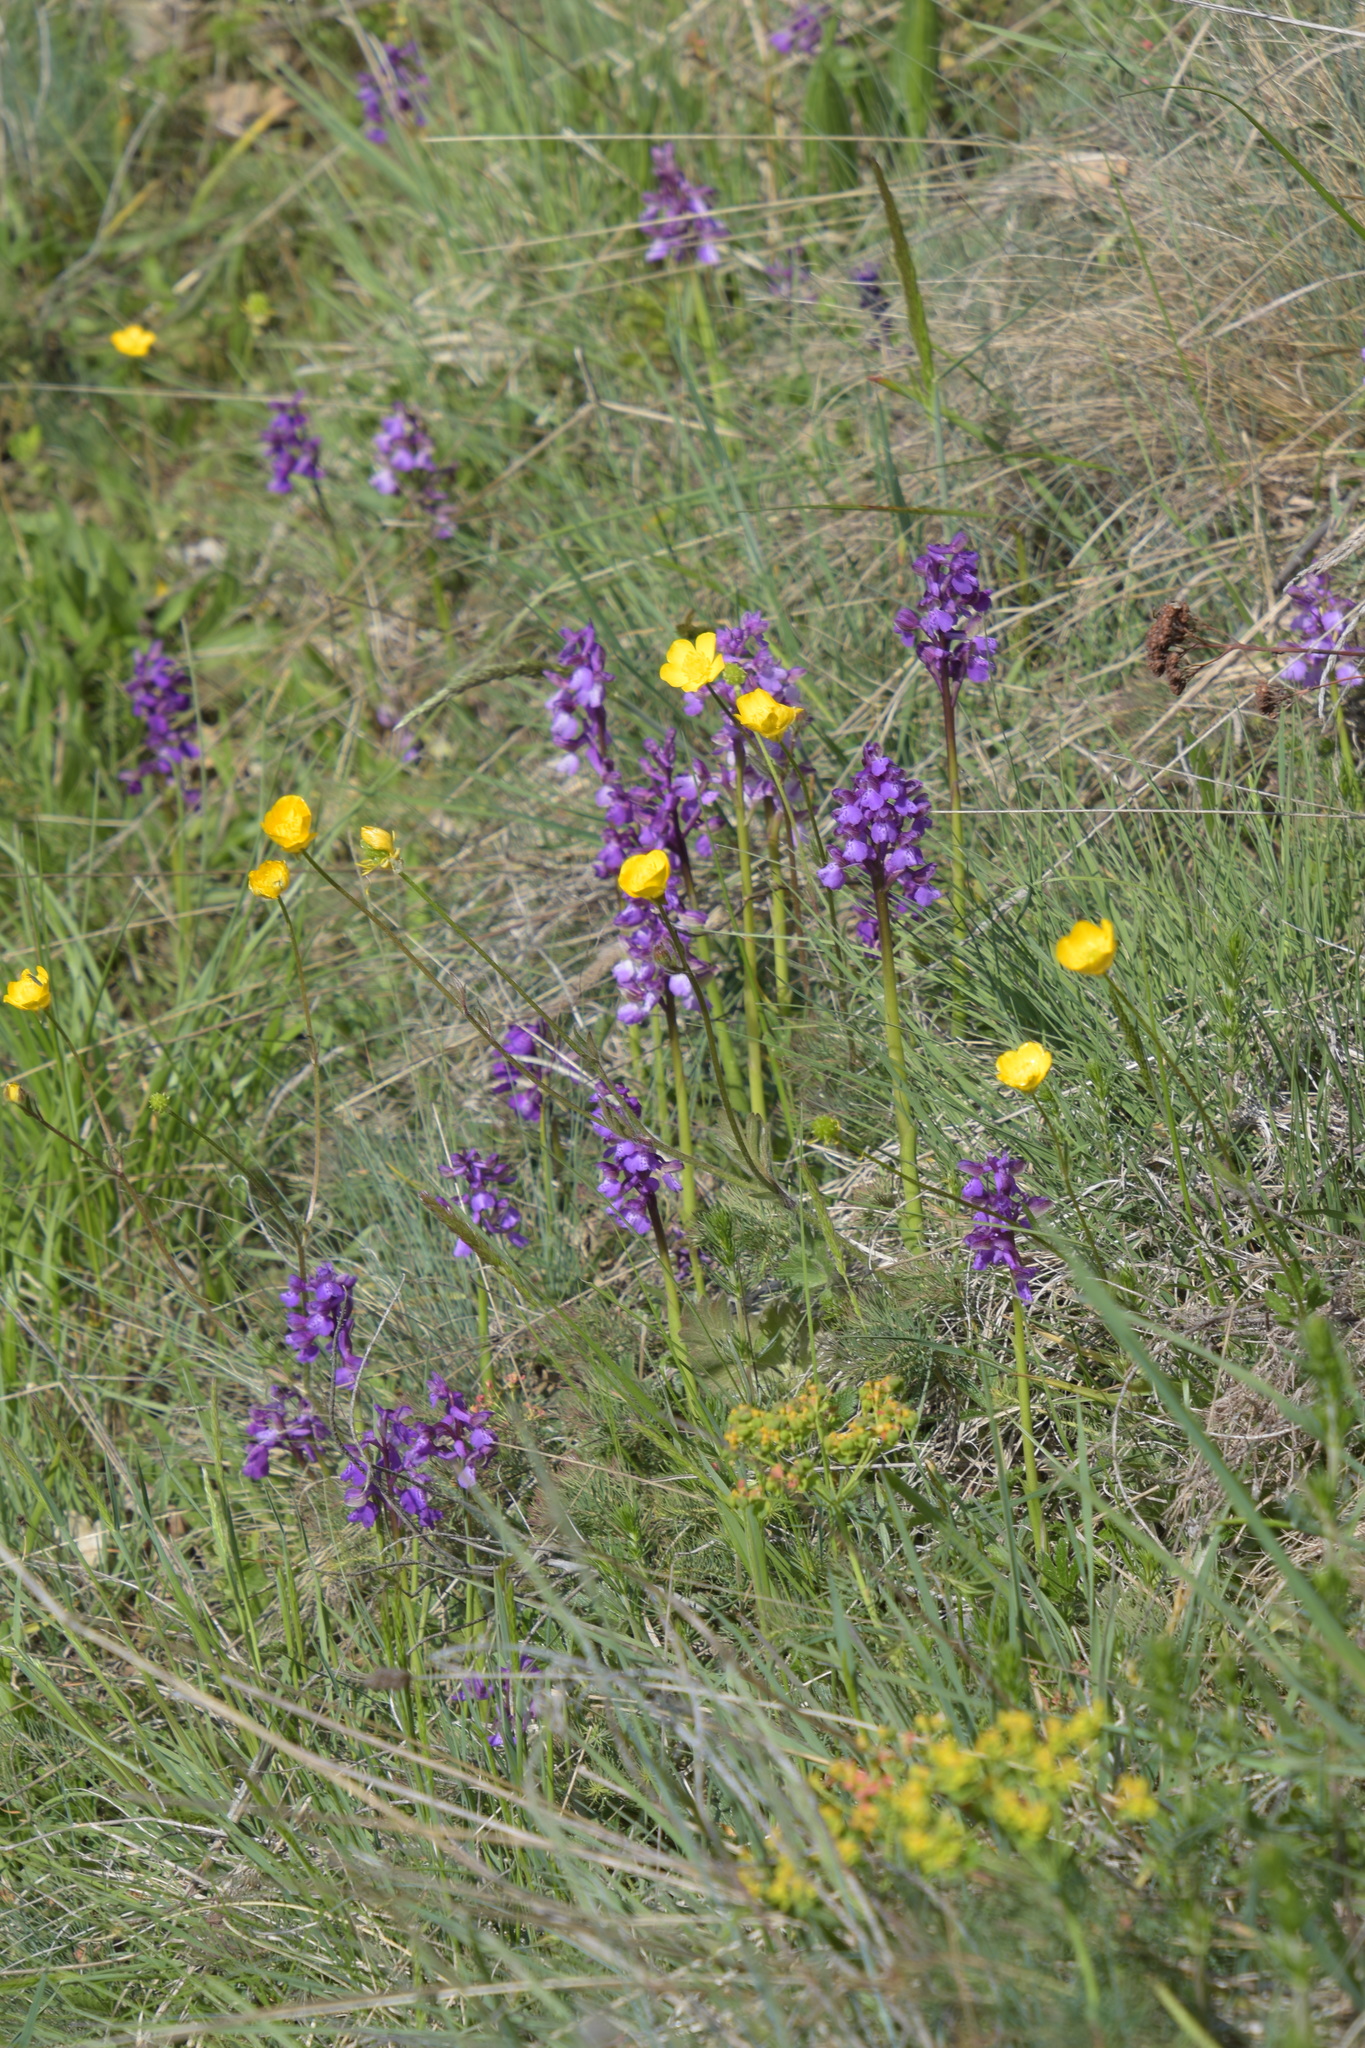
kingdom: Plantae
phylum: Tracheophyta
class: Liliopsida
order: Asparagales
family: Orchidaceae
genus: Anacamptis
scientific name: Anacamptis morio
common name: Green-winged orchid
